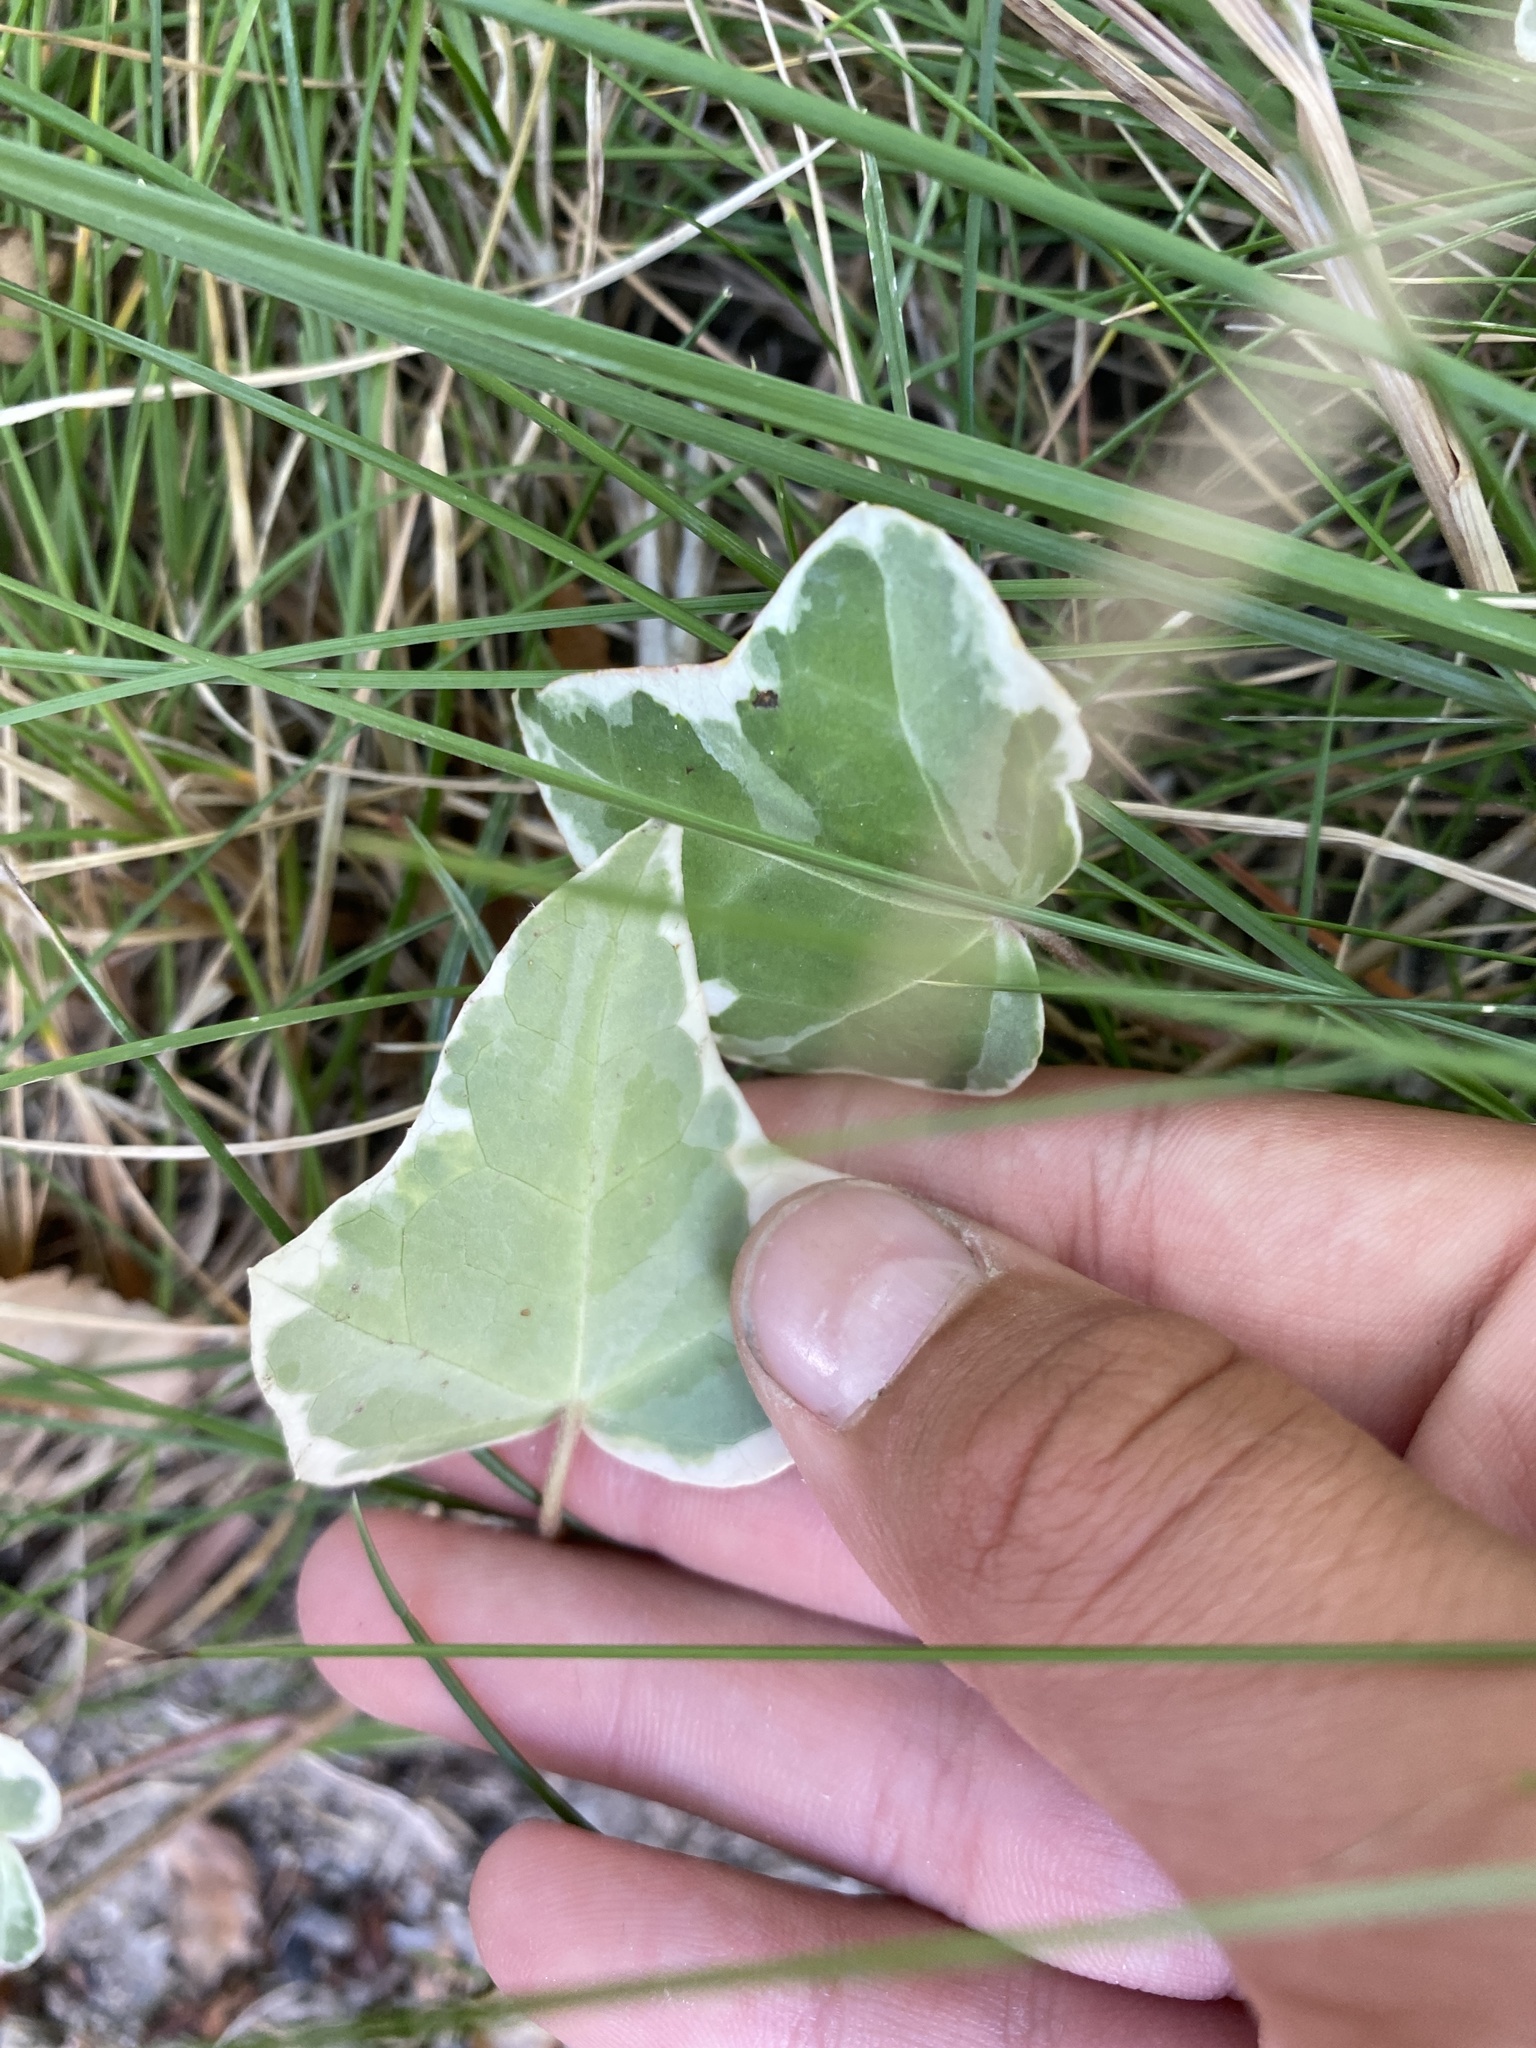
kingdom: Plantae
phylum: Tracheophyta
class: Magnoliopsida
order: Apiales
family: Araliaceae
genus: Hedera
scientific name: Hedera helix
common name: Ivy
